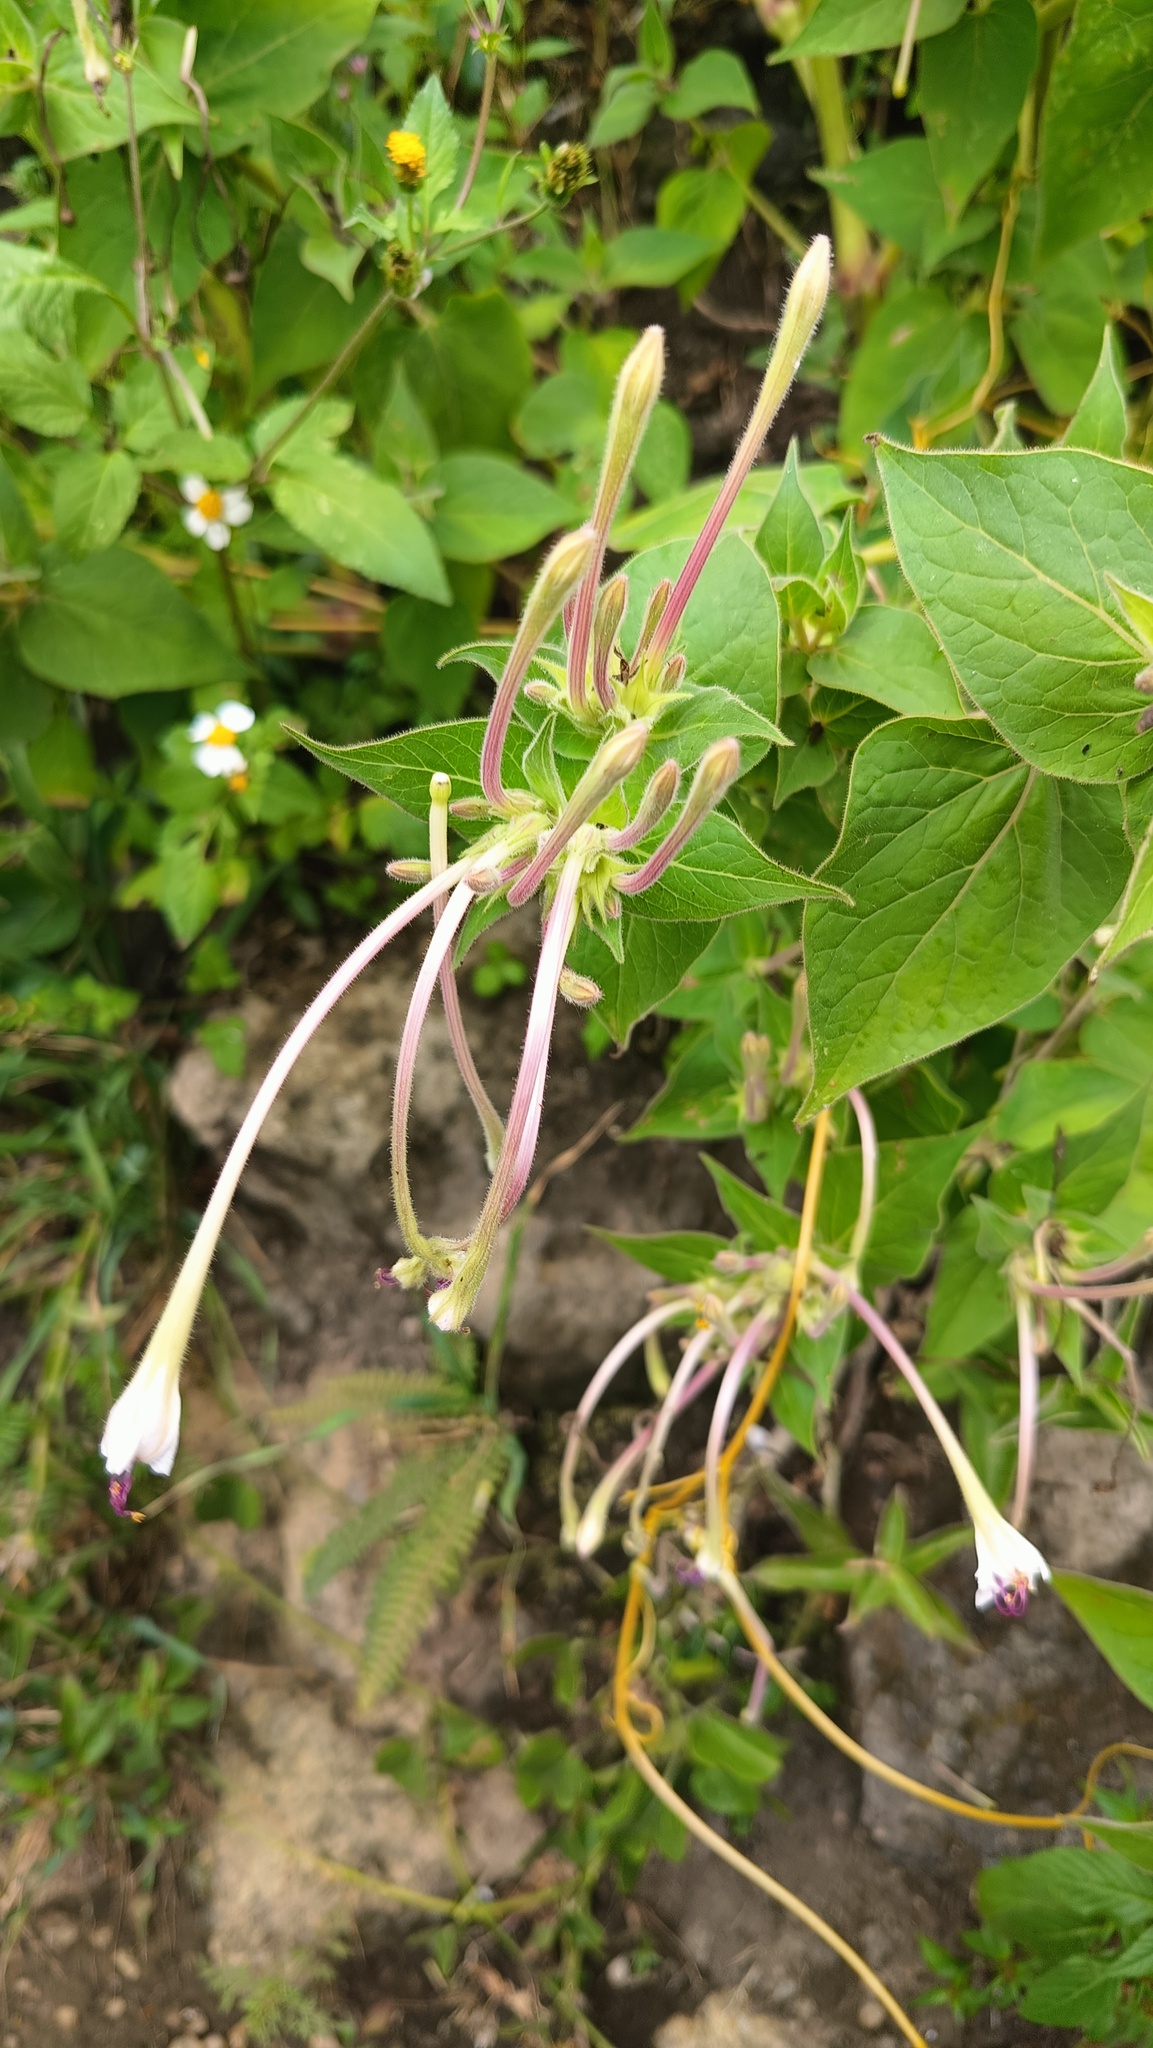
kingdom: Plantae
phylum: Tracheophyta
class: Magnoliopsida
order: Caryophyllales
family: Nyctaginaceae
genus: Mirabilis
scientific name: Mirabilis longiflora
